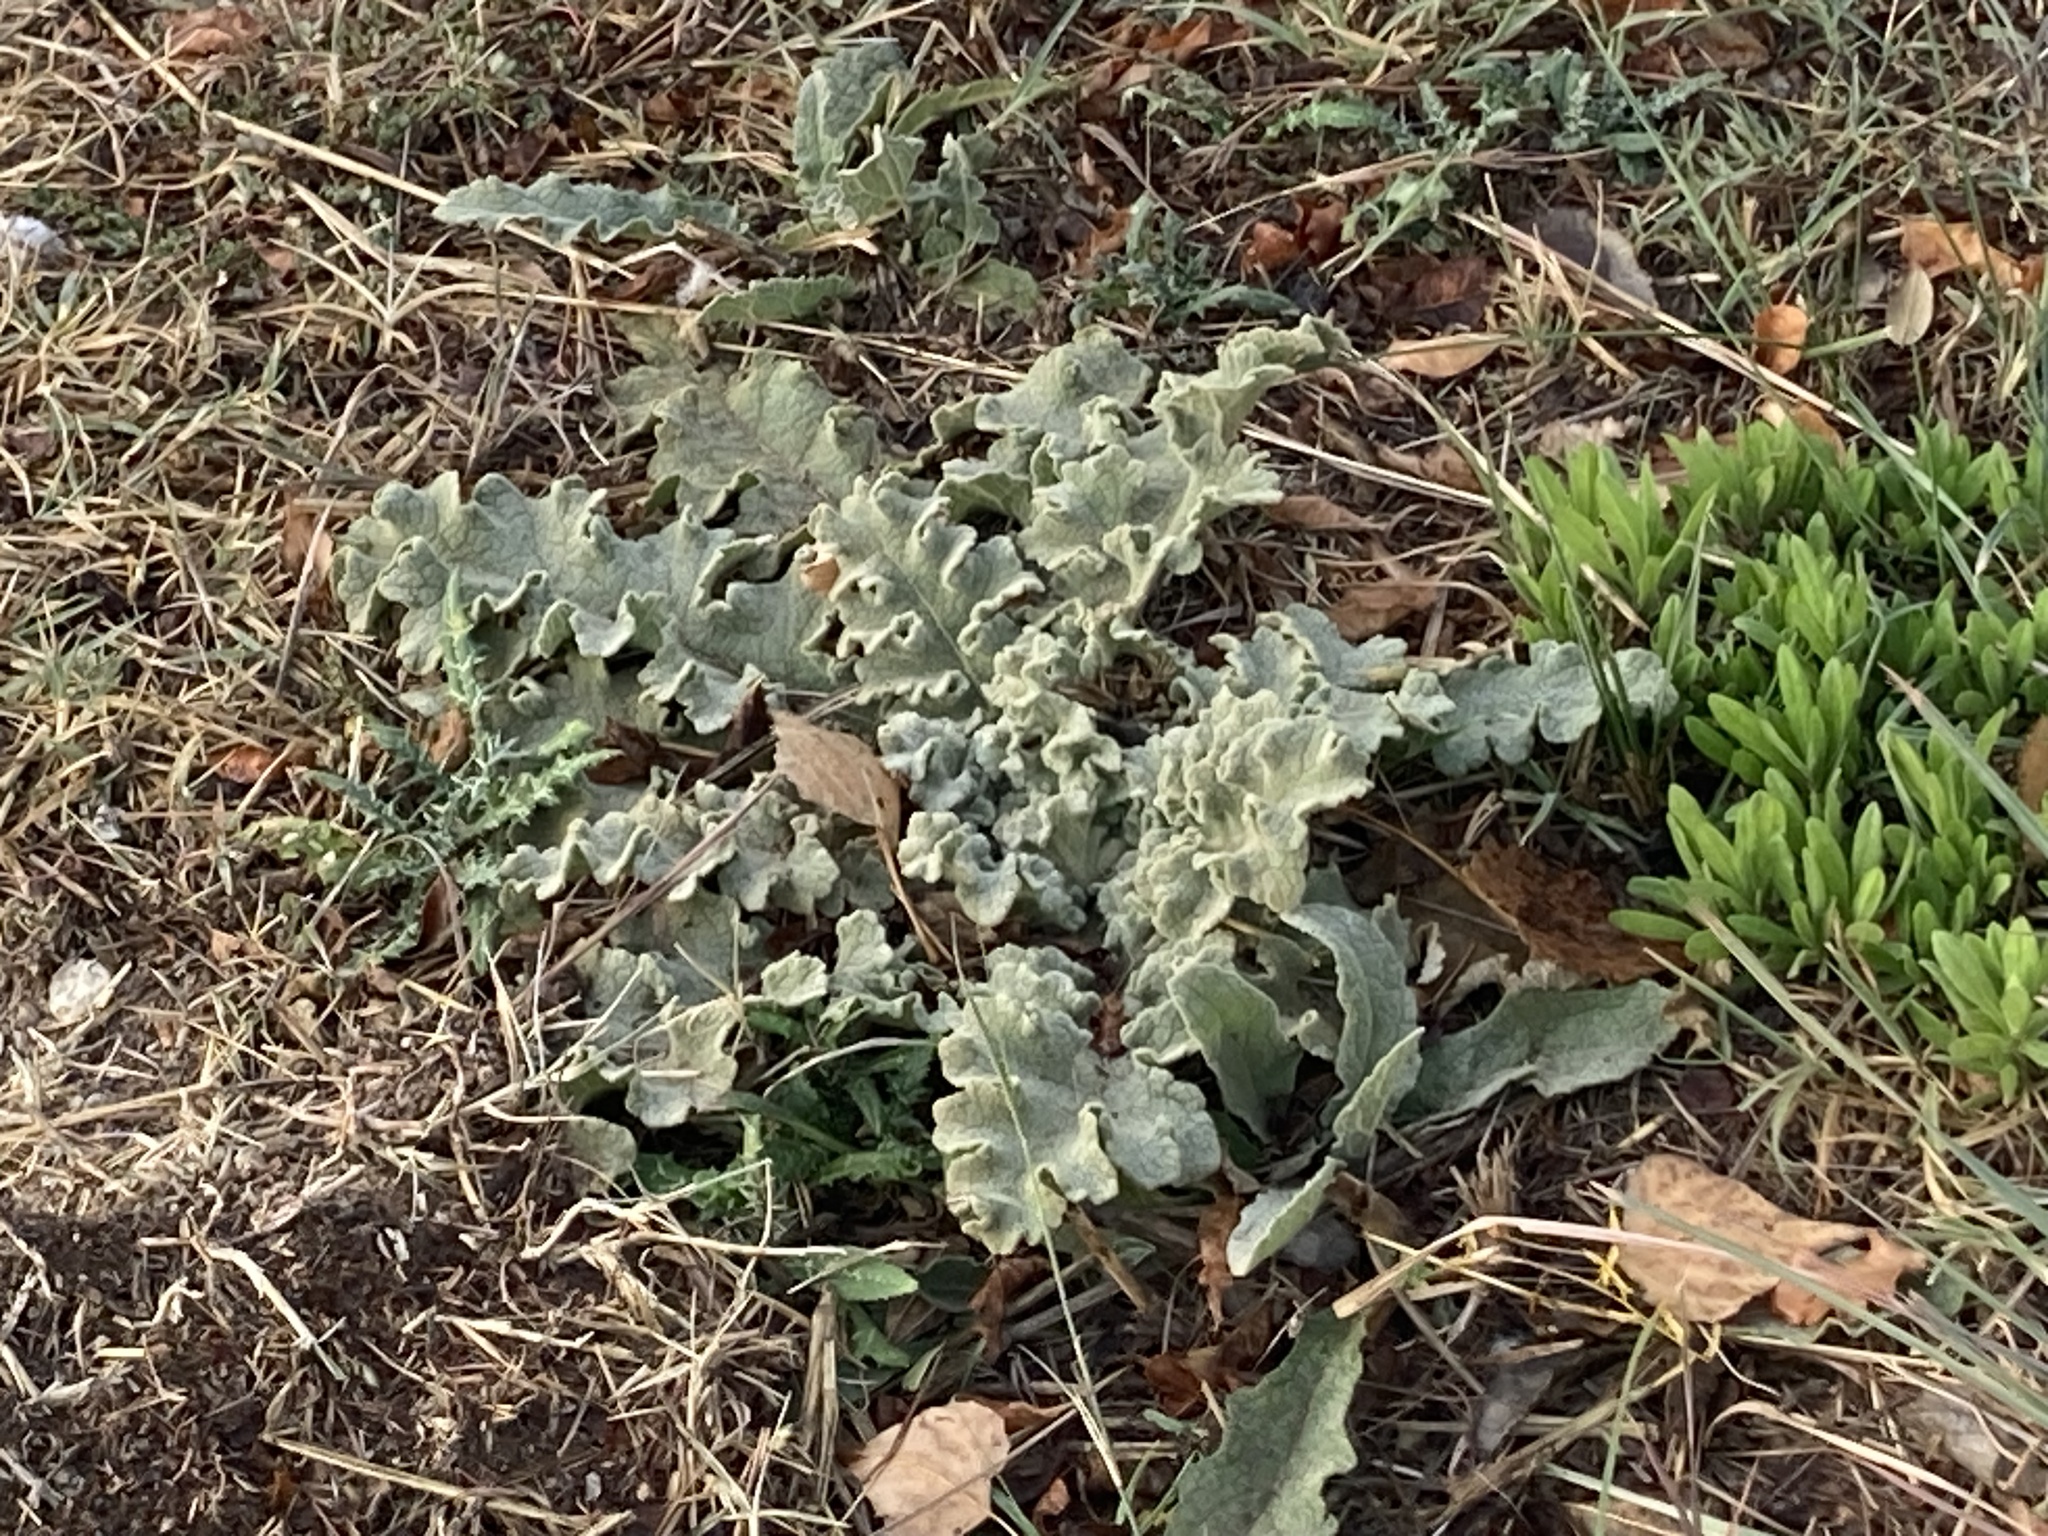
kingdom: Plantae
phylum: Tracheophyta
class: Magnoliopsida
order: Lamiales
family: Scrophulariaceae
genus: Verbascum
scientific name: Verbascum sinuatum
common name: Wavyleaf mullein
